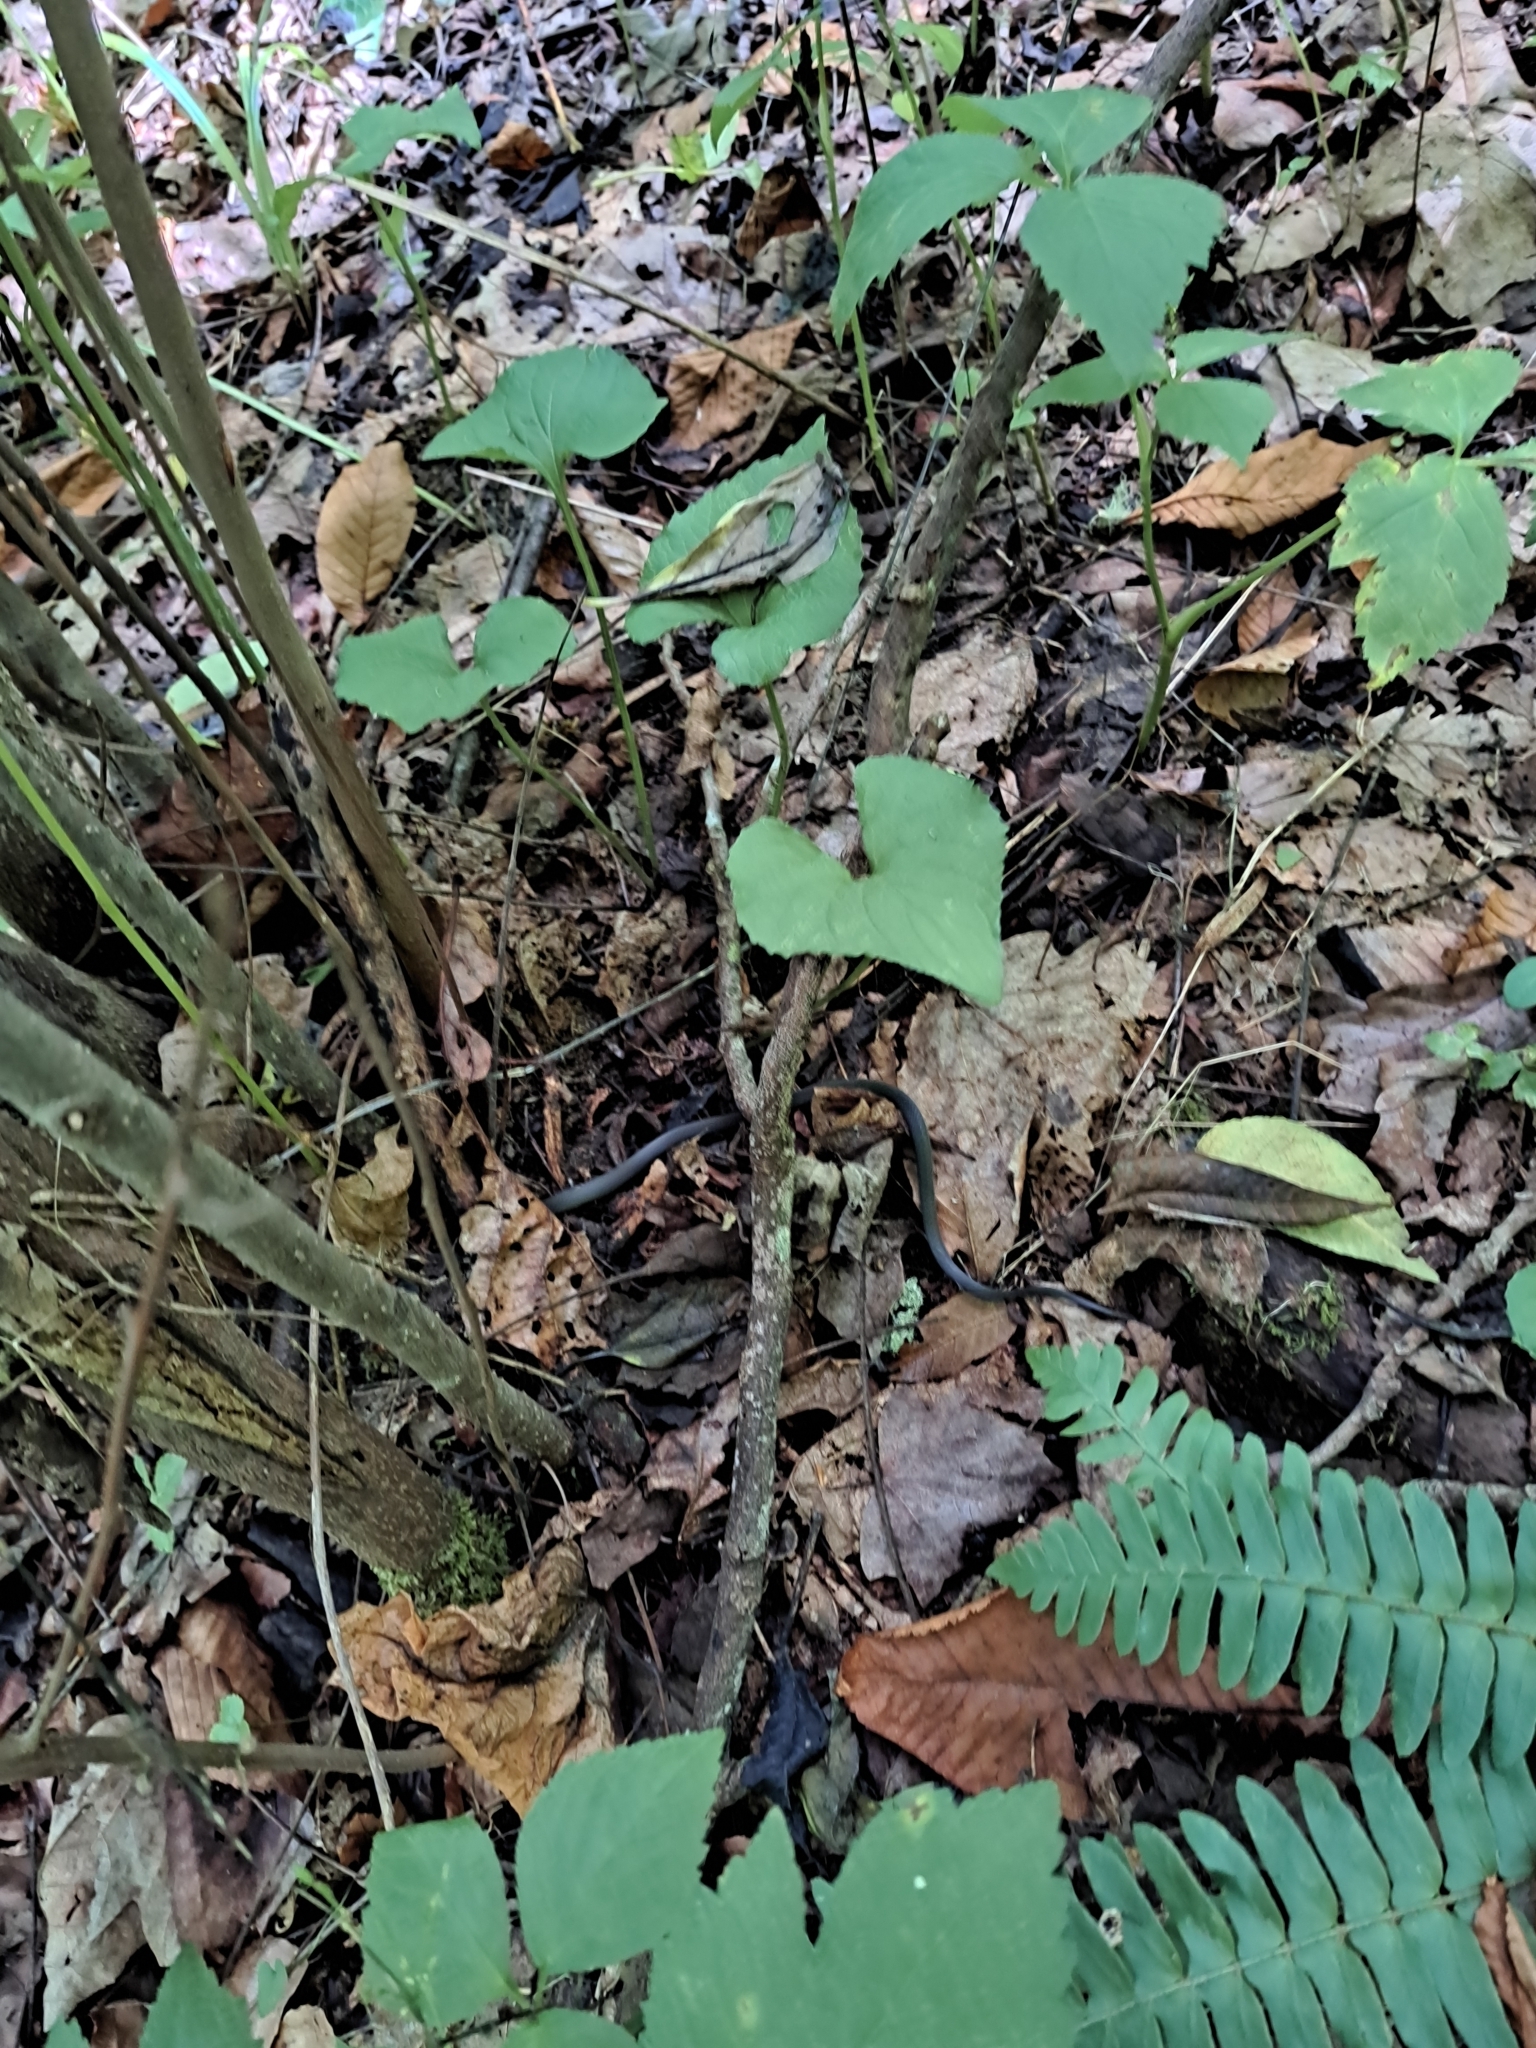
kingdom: Animalia
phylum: Chordata
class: Squamata
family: Colubridae
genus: Diadophis
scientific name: Diadophis punctatus
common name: Ringneck snake
